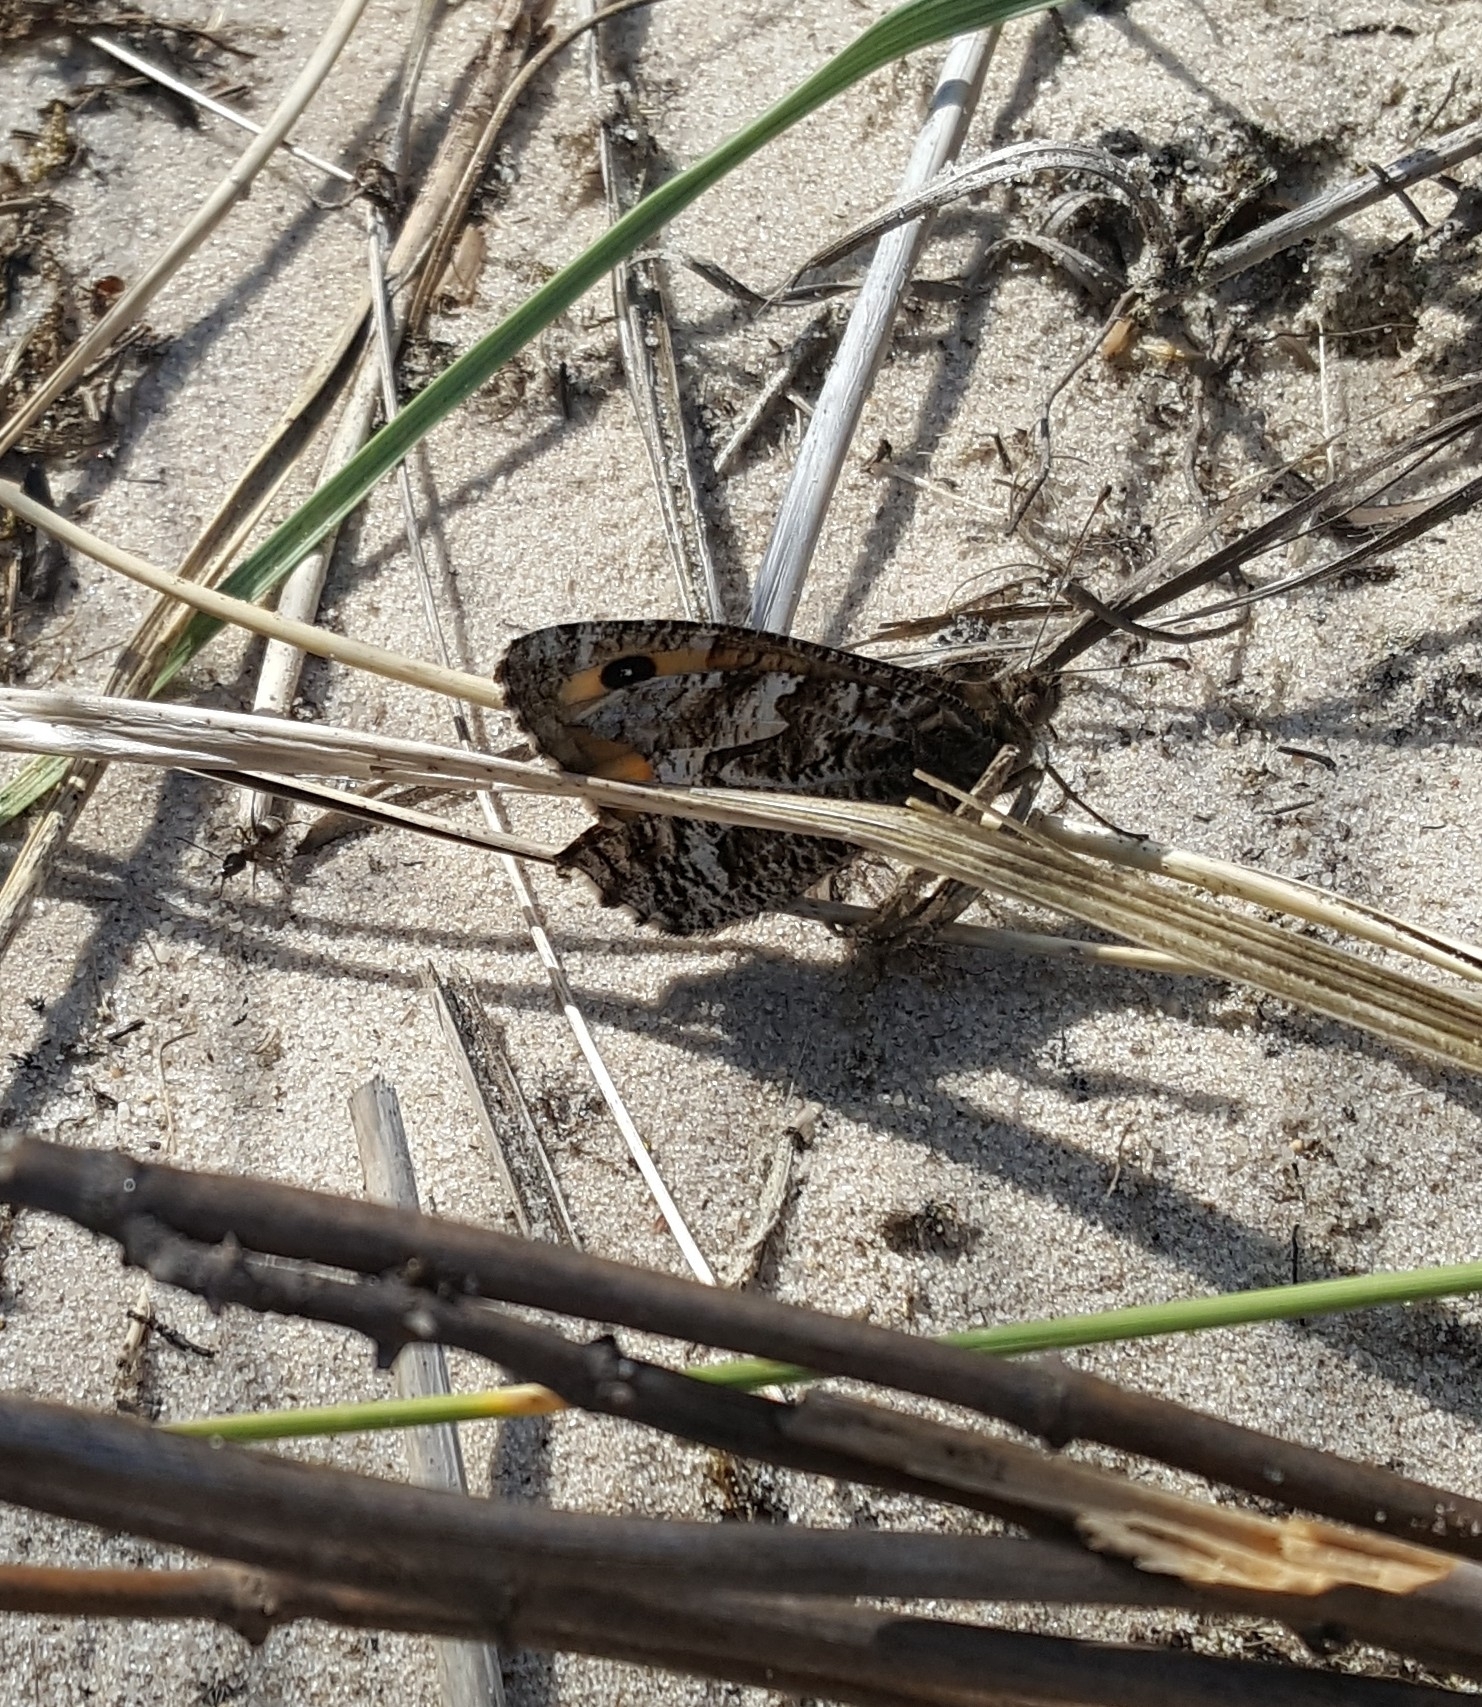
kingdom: Animalia
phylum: Arthropoda
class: Insecta
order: Lepidoptera
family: Nymphalidae
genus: Hipparchia
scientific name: Hipparchia semele
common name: Grayling
